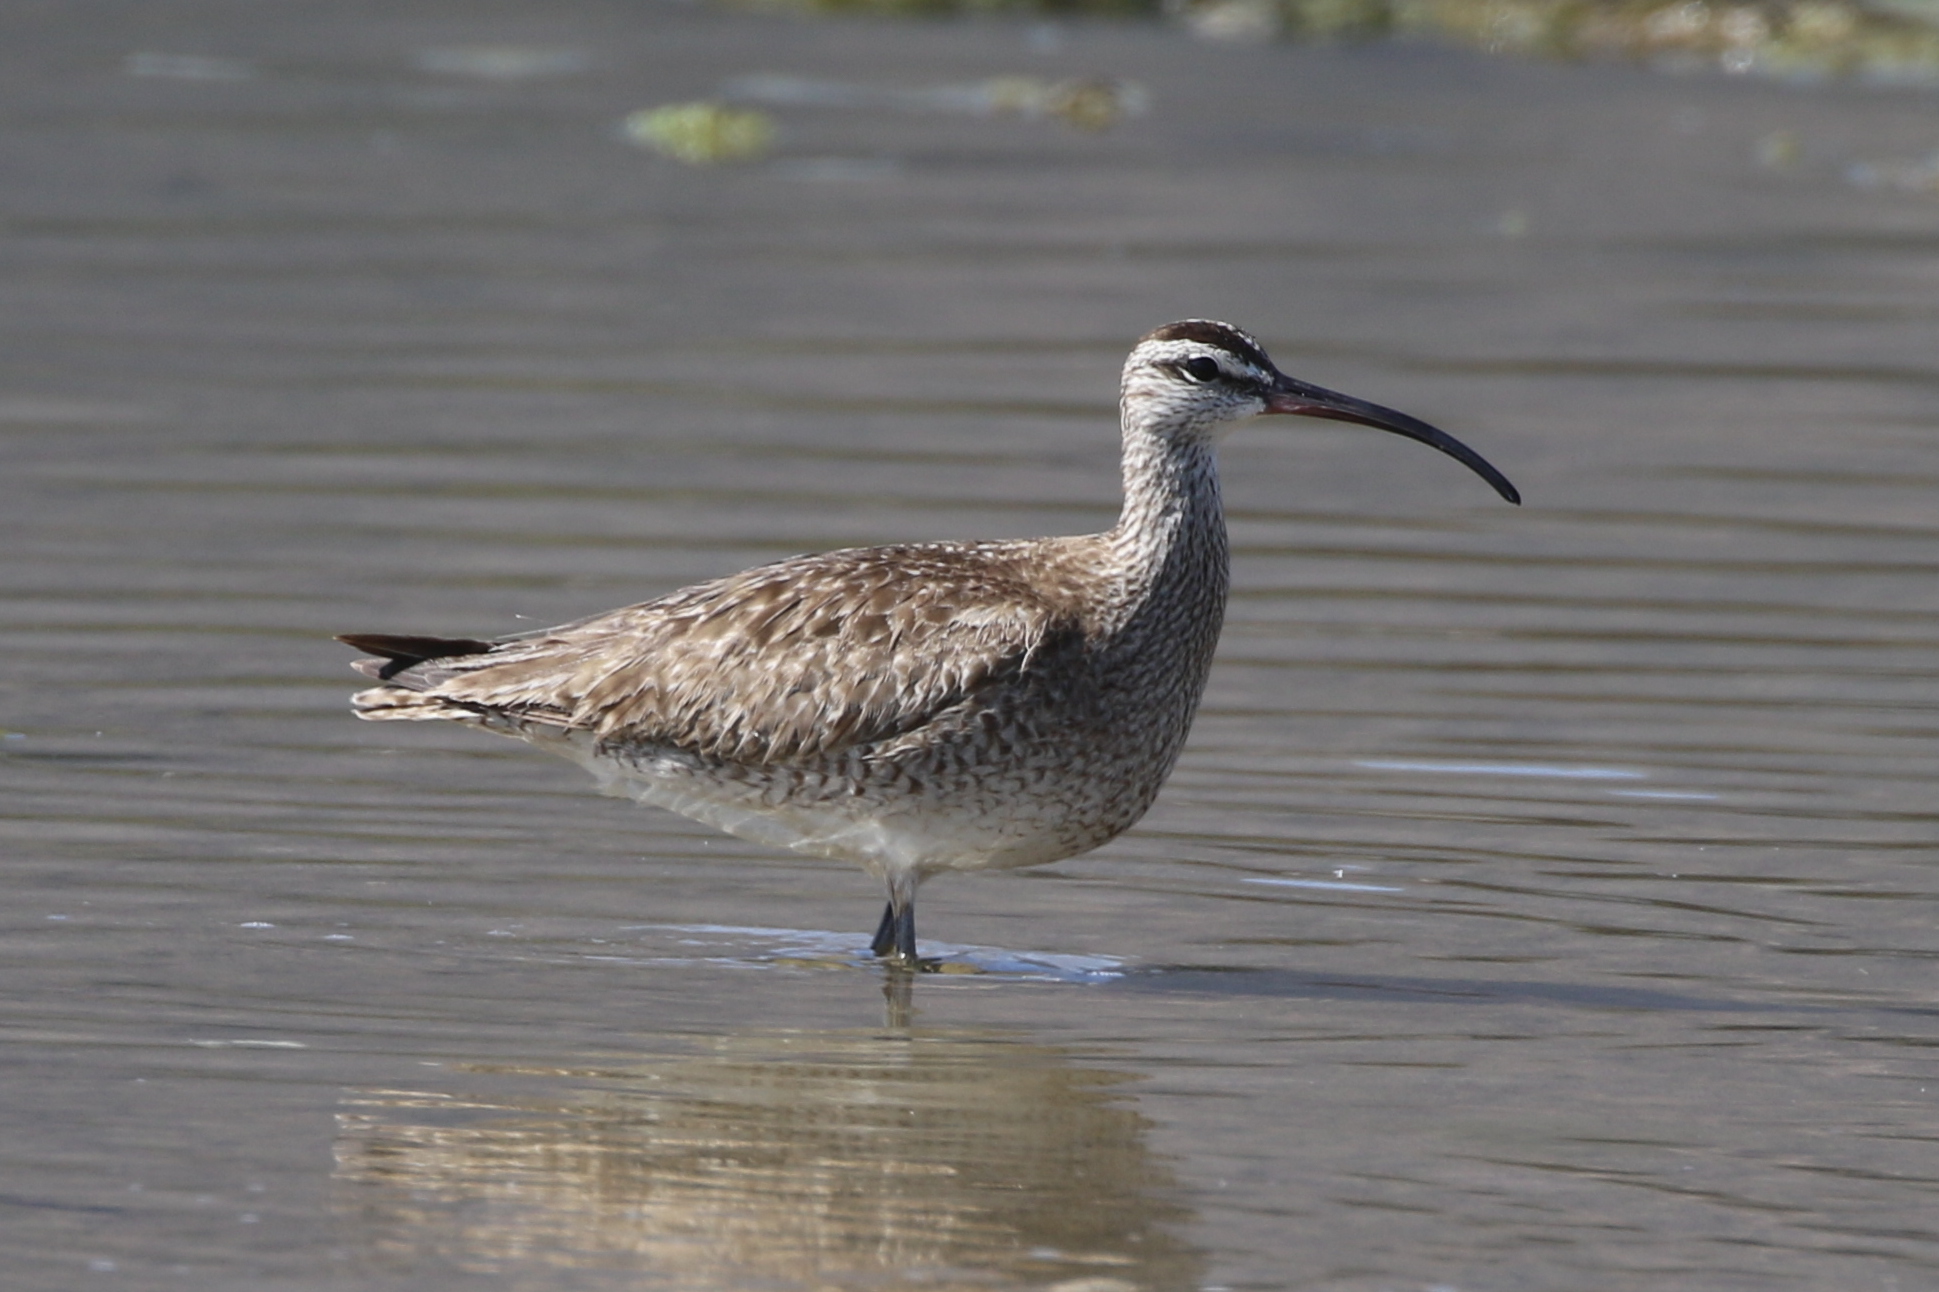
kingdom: Animalia
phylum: Chordata
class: Aves
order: Charadriiformes
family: Scolopacidae
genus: Numenius
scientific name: Numenius phaeopus
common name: Whimbrel
